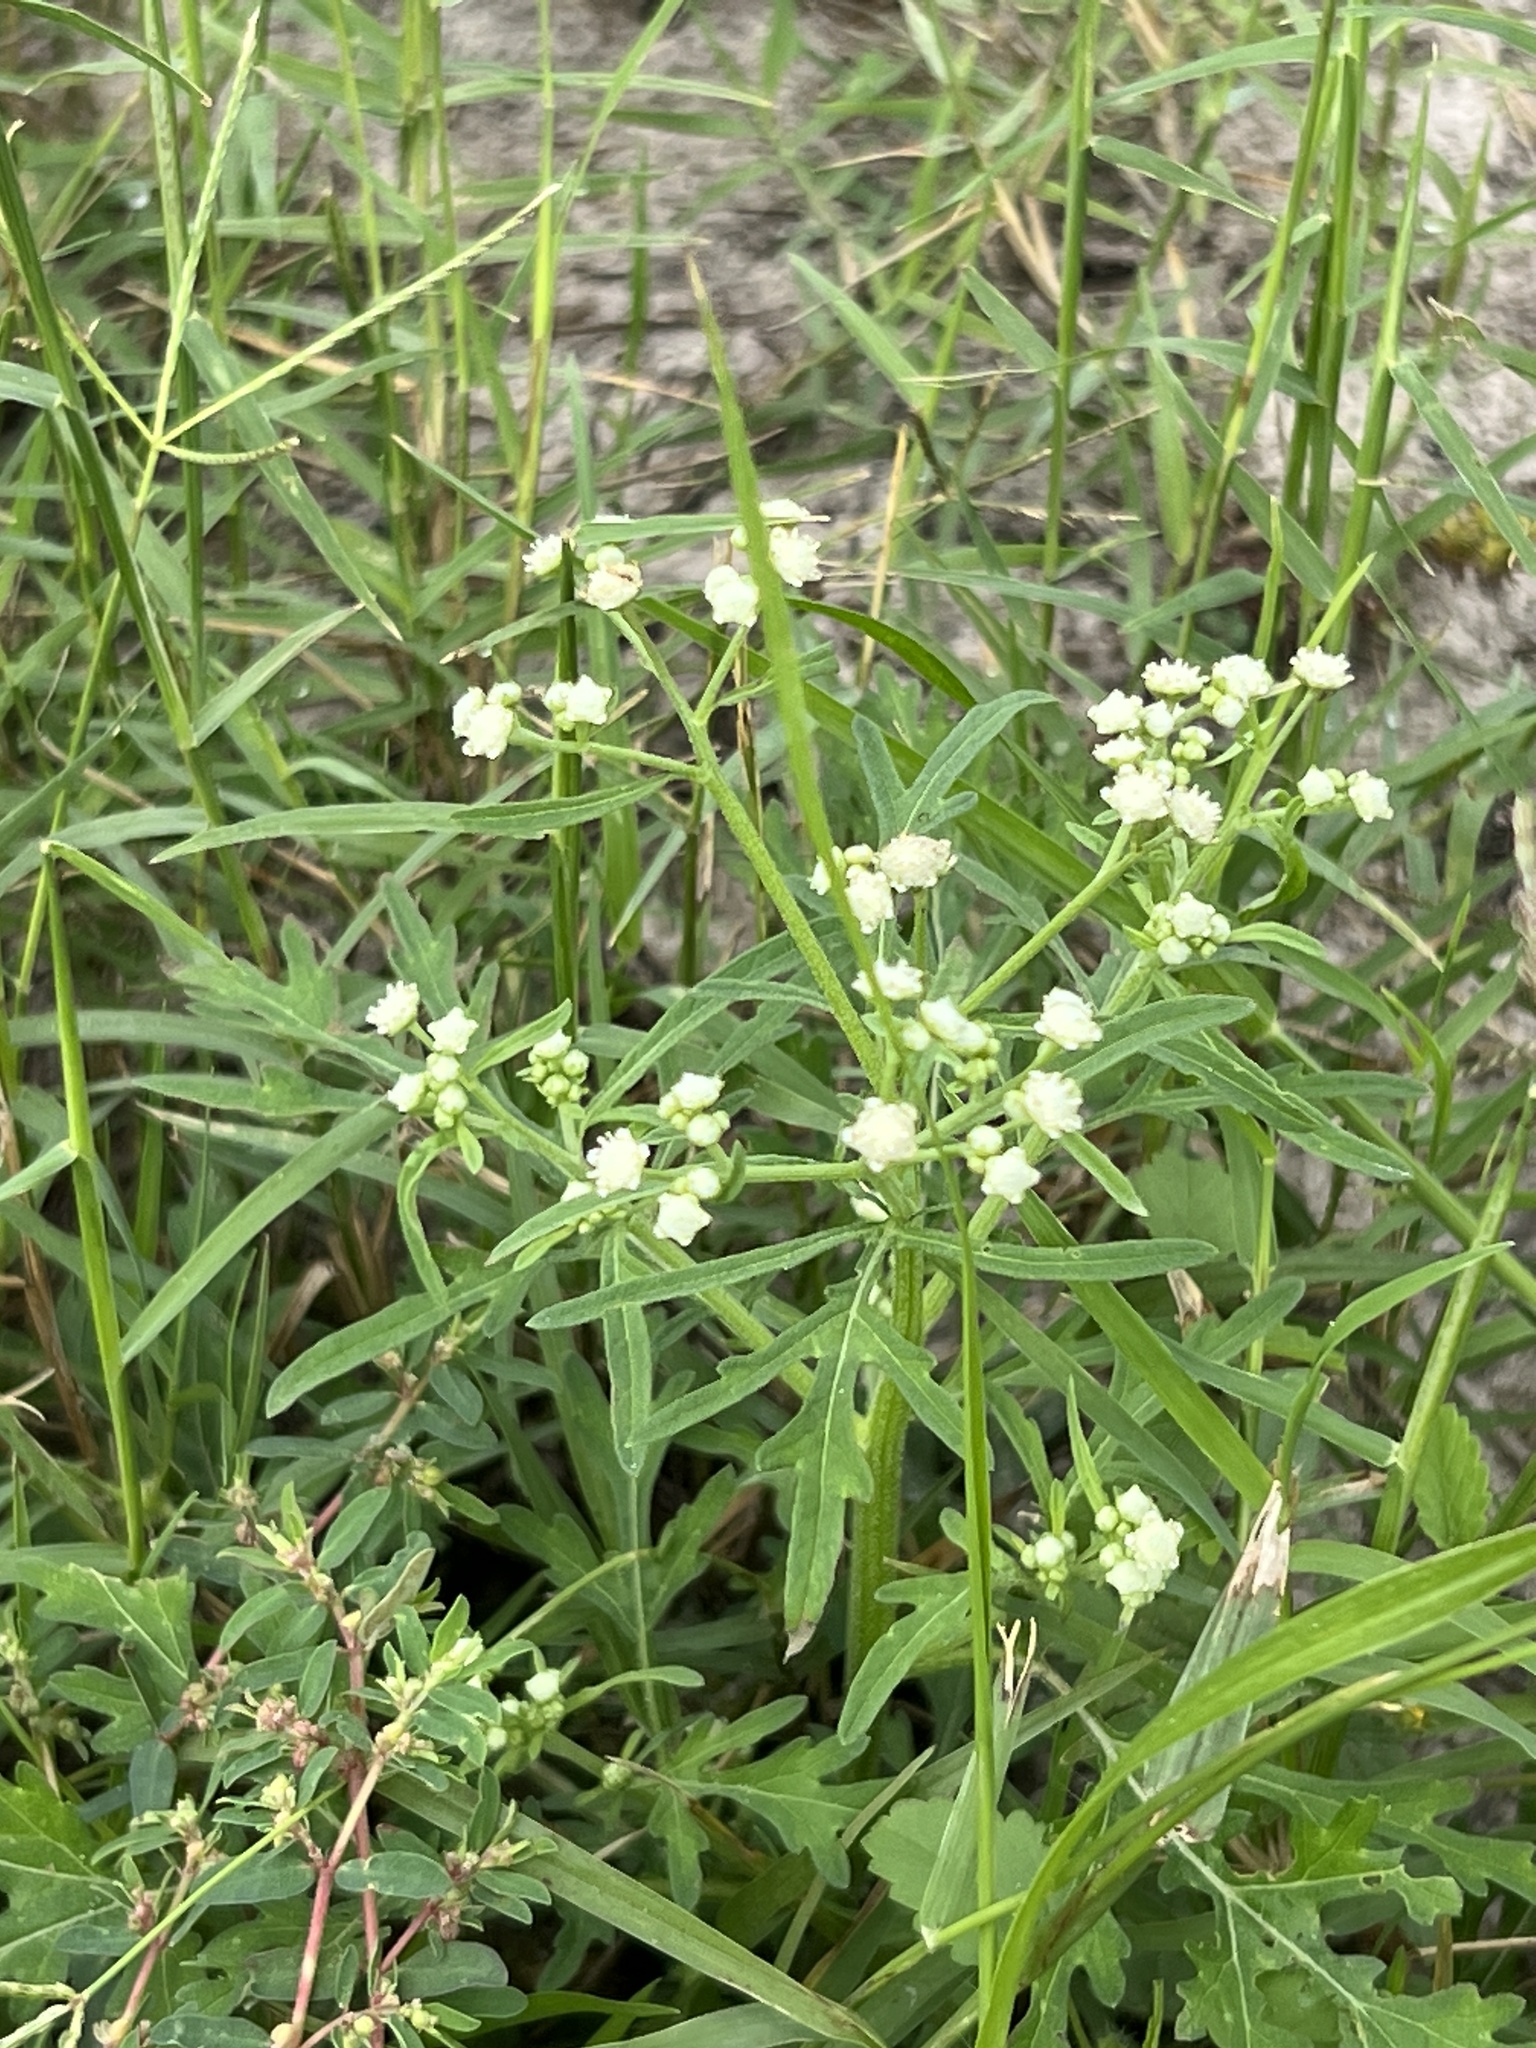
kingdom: Plantae
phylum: Tracheophyta
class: Magnoliopsida
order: Asterales
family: Asteraceae
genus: Parthenium
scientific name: Parthenium hysterophorus
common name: Santa maria feverfew
